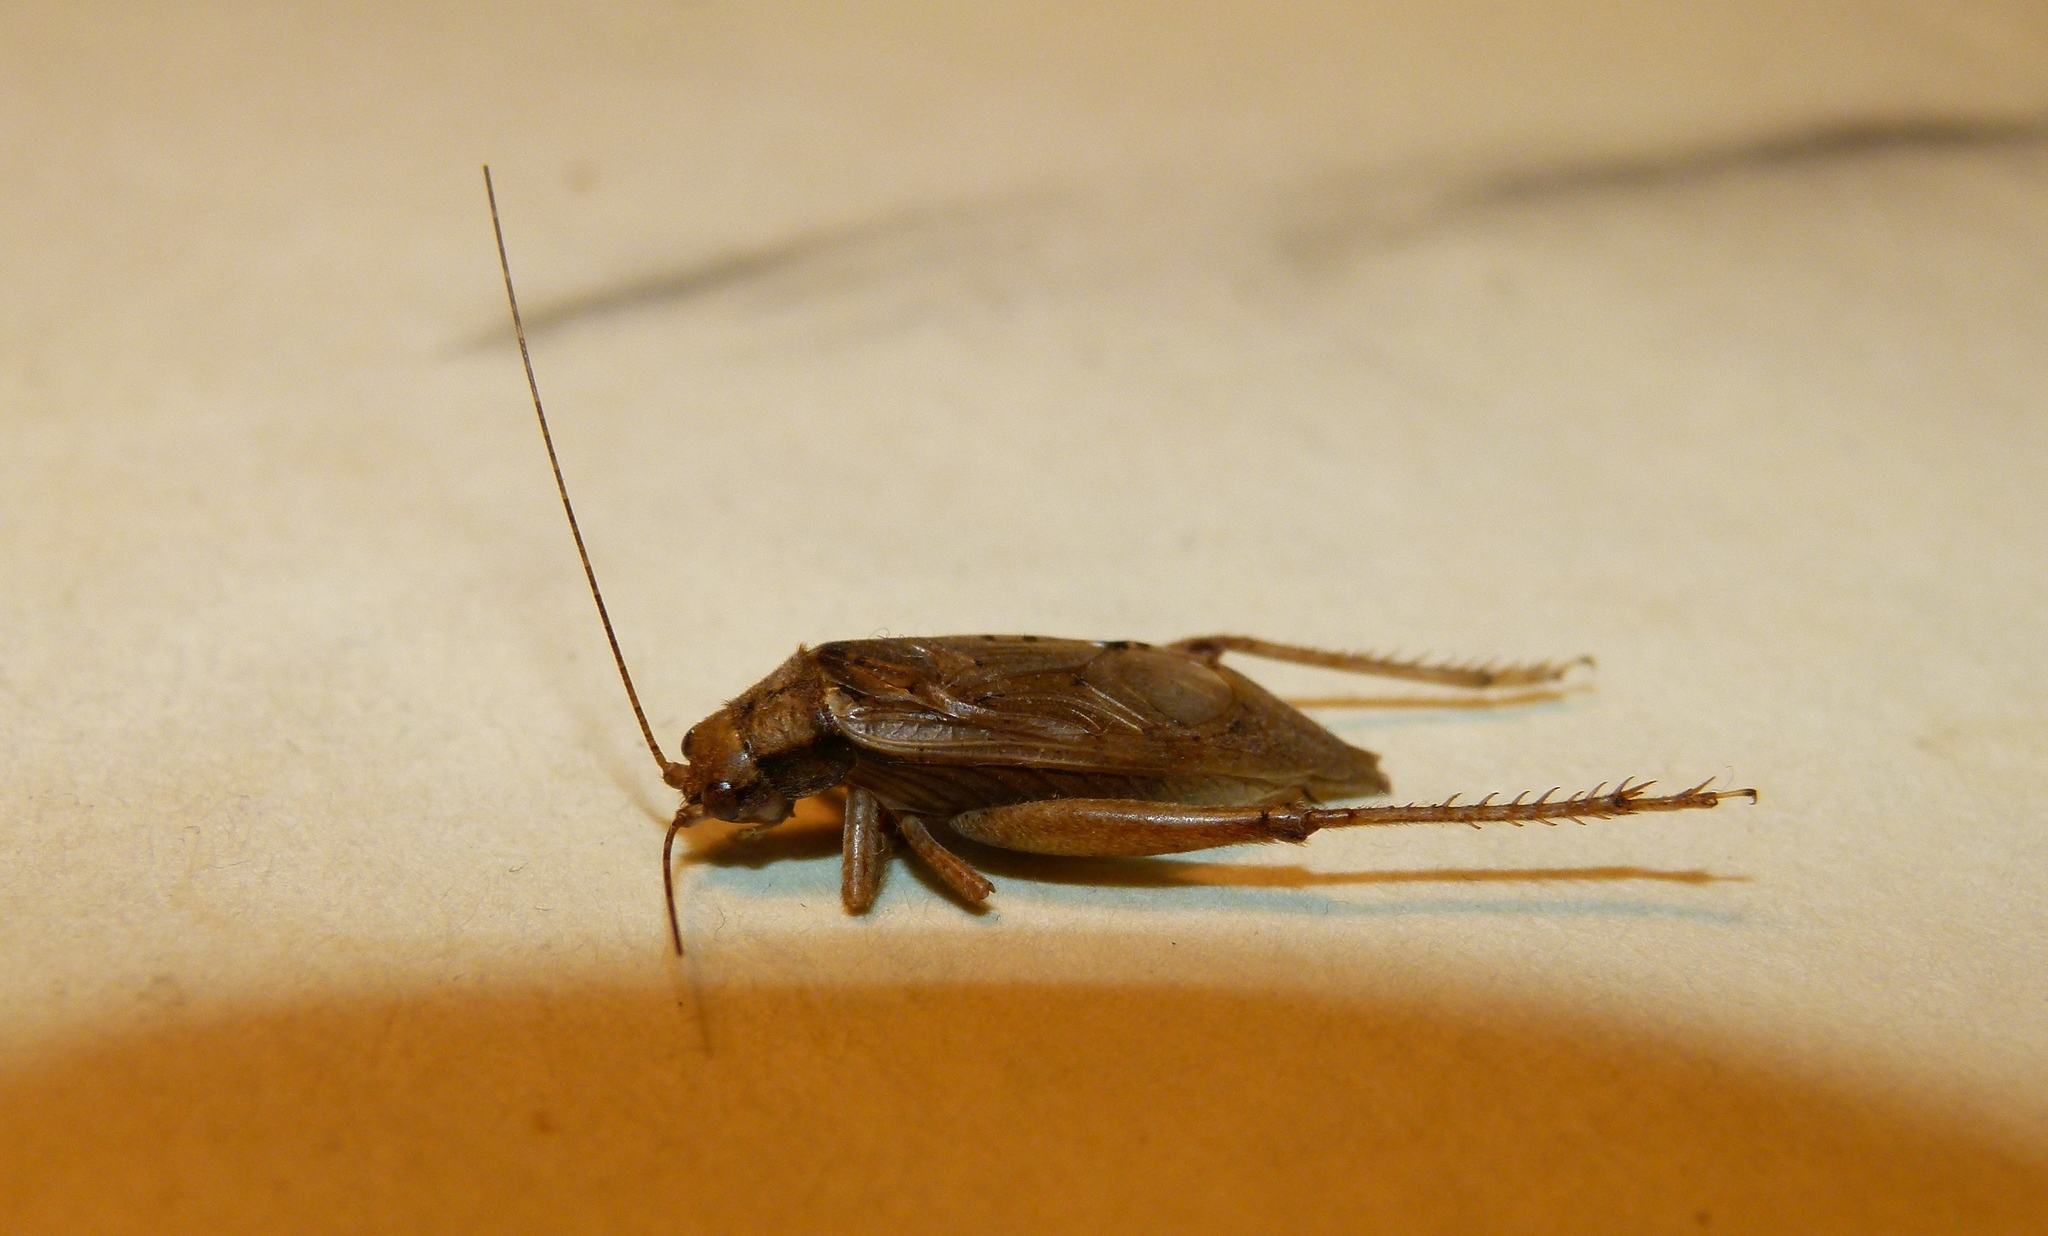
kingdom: Animalia
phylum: Arthropoda
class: Insecta
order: Orthoptera
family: Gryllidae
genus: Hapithus
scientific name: Hapithus saltator
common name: Jumping bush cricket
